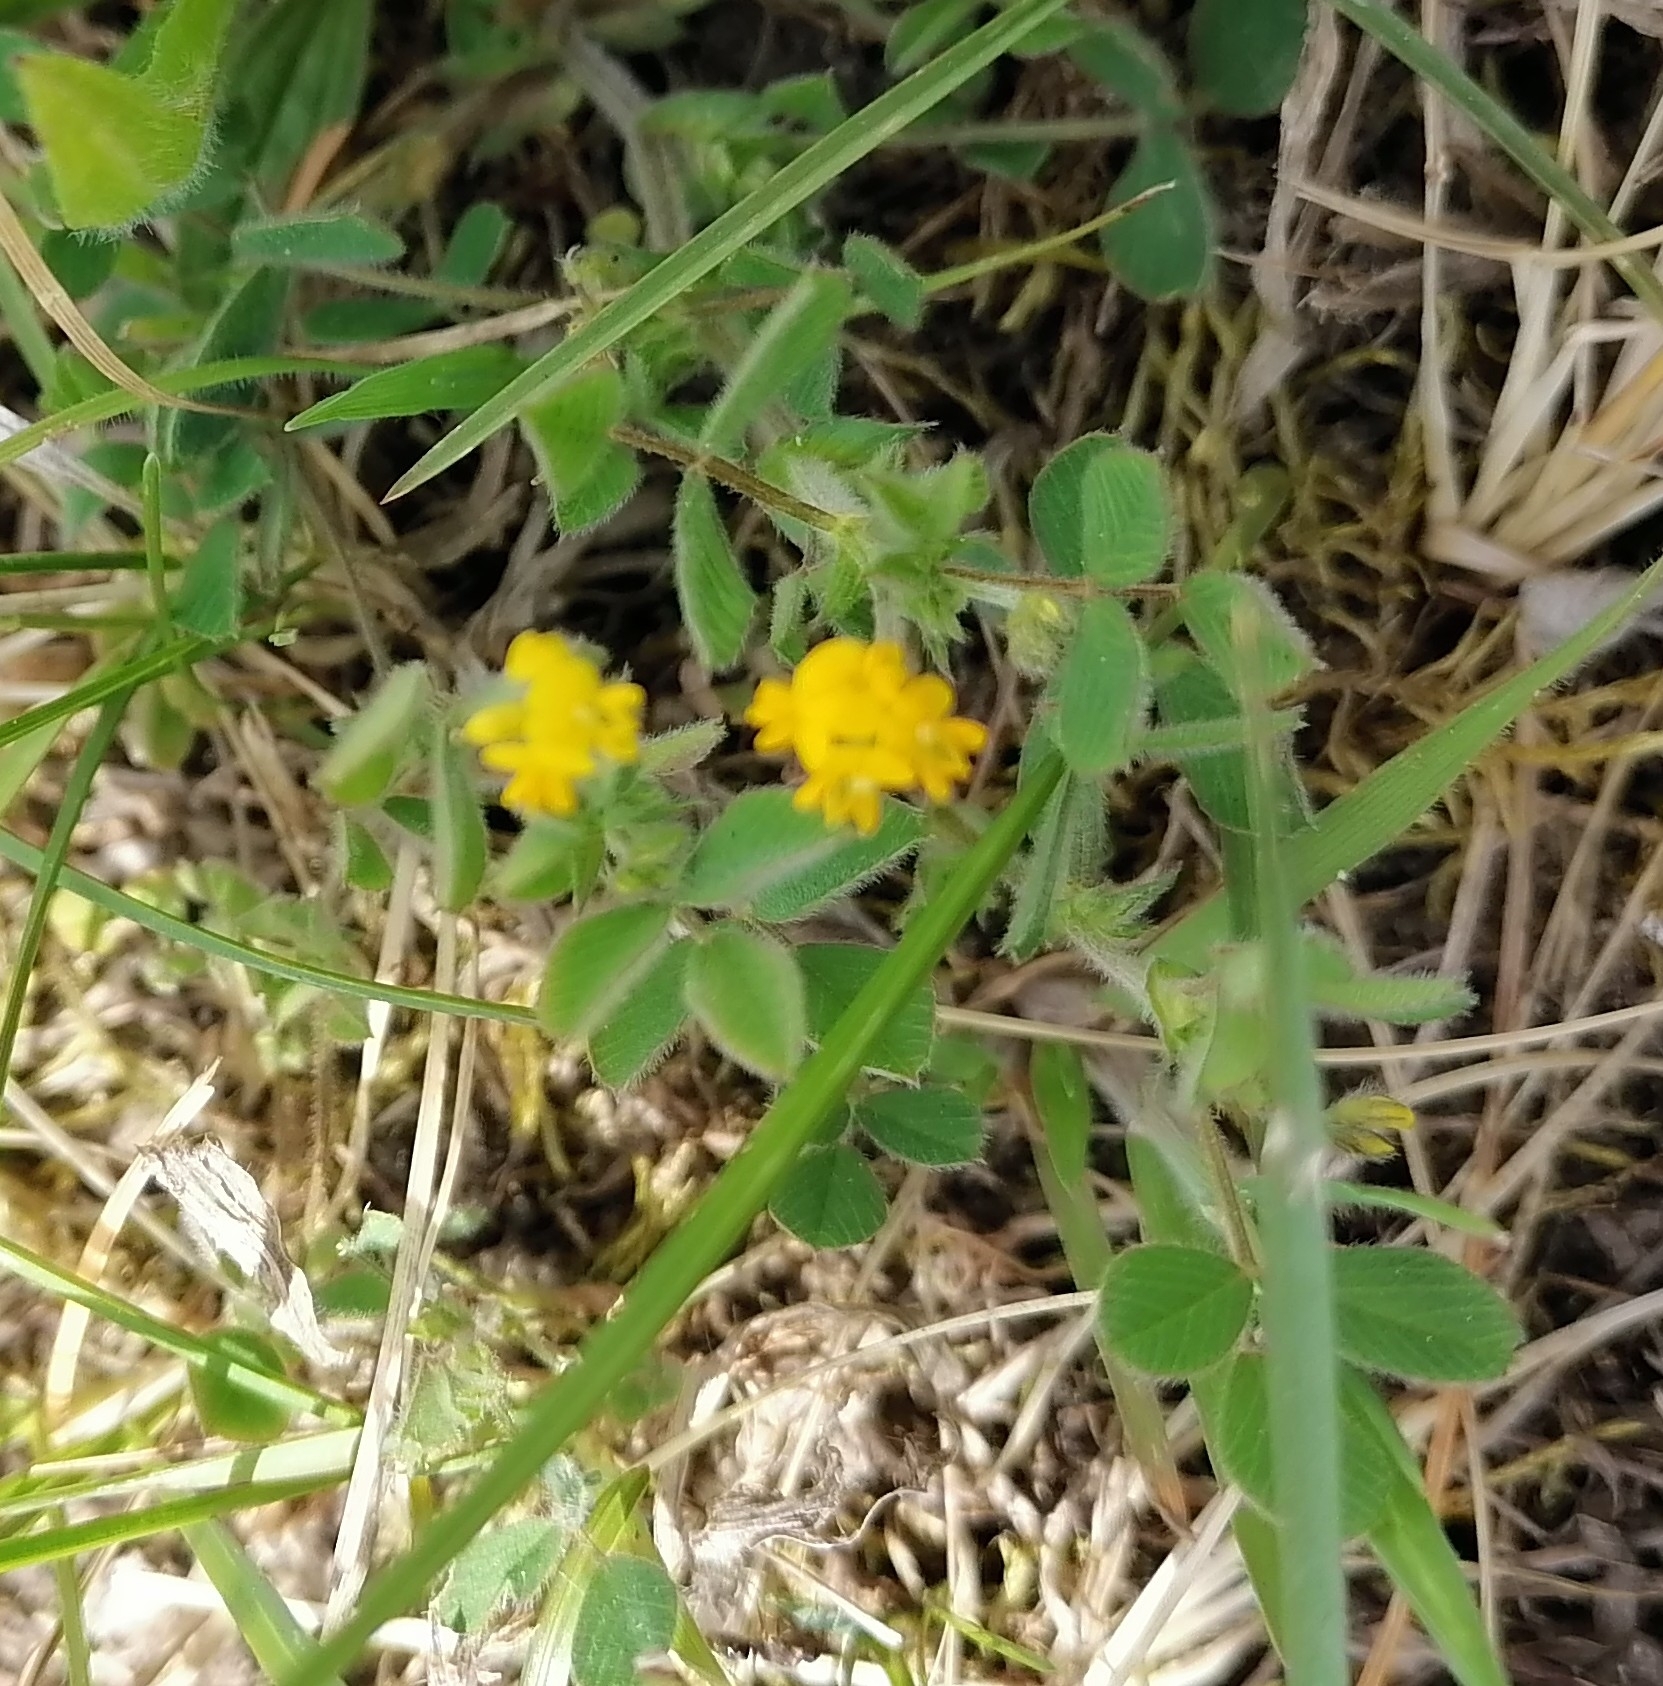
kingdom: Plantae
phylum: Tracheophyta
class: Magnoliopsida
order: Fabales
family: Fabaceae
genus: Medicago
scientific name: Medicago minima
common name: Little bur-clover
